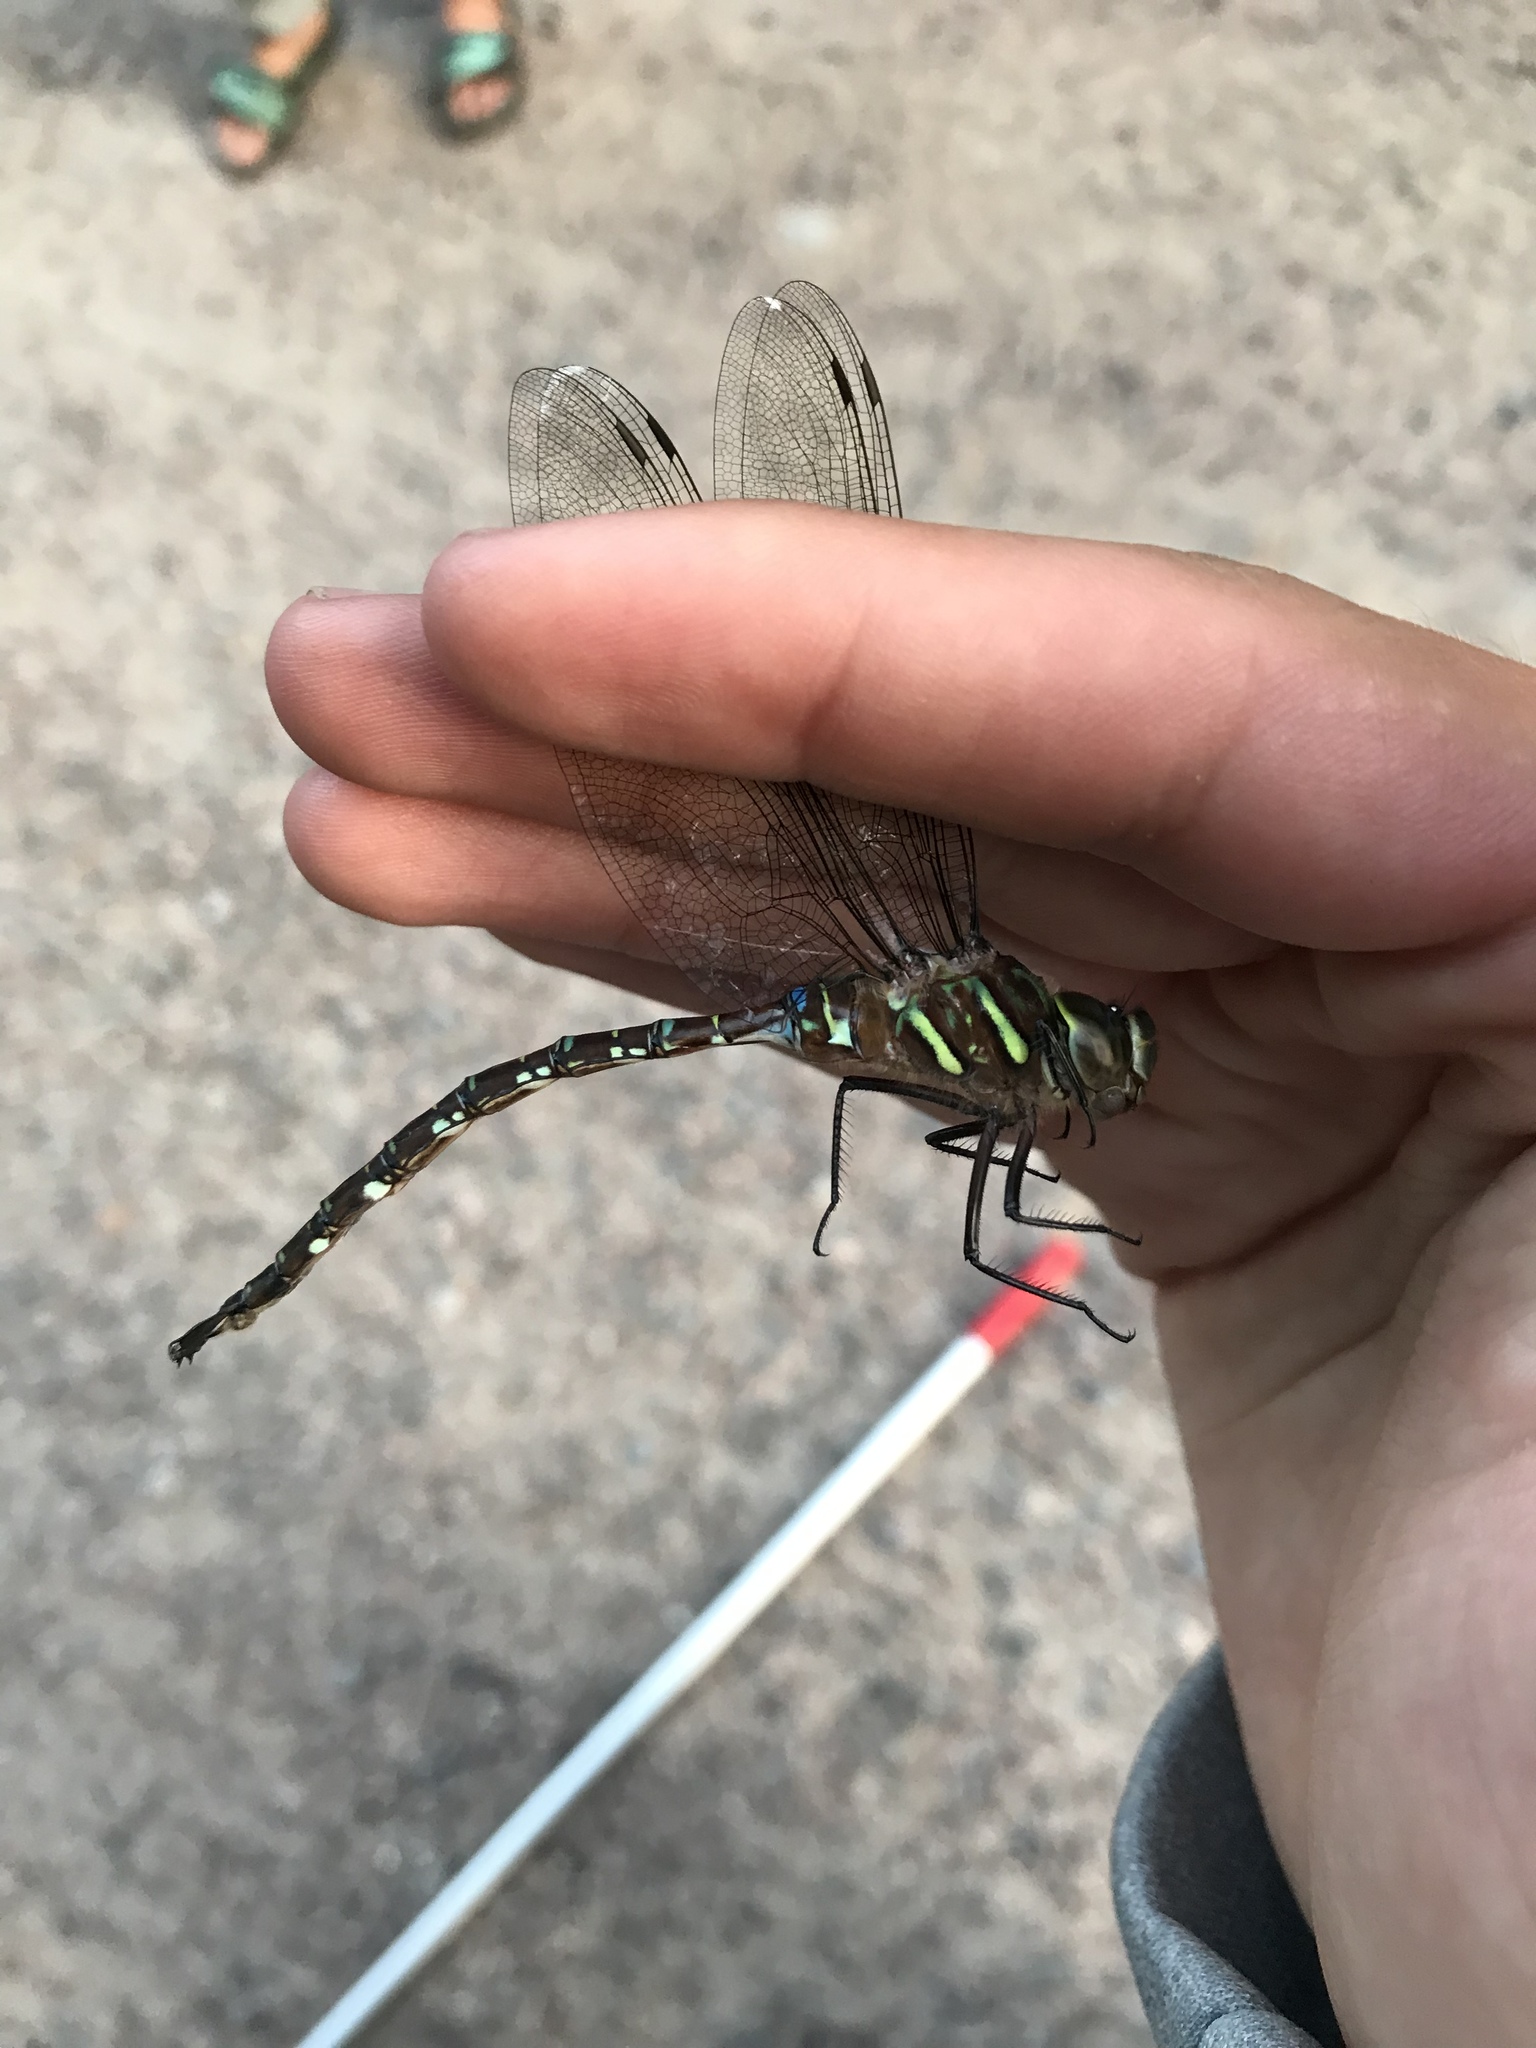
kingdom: Animalia
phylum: Arthropoda
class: Insecta
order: Odonata
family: Aeshnidae
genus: Aeshna
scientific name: Aeshna umbrosa
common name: Shadow darner
